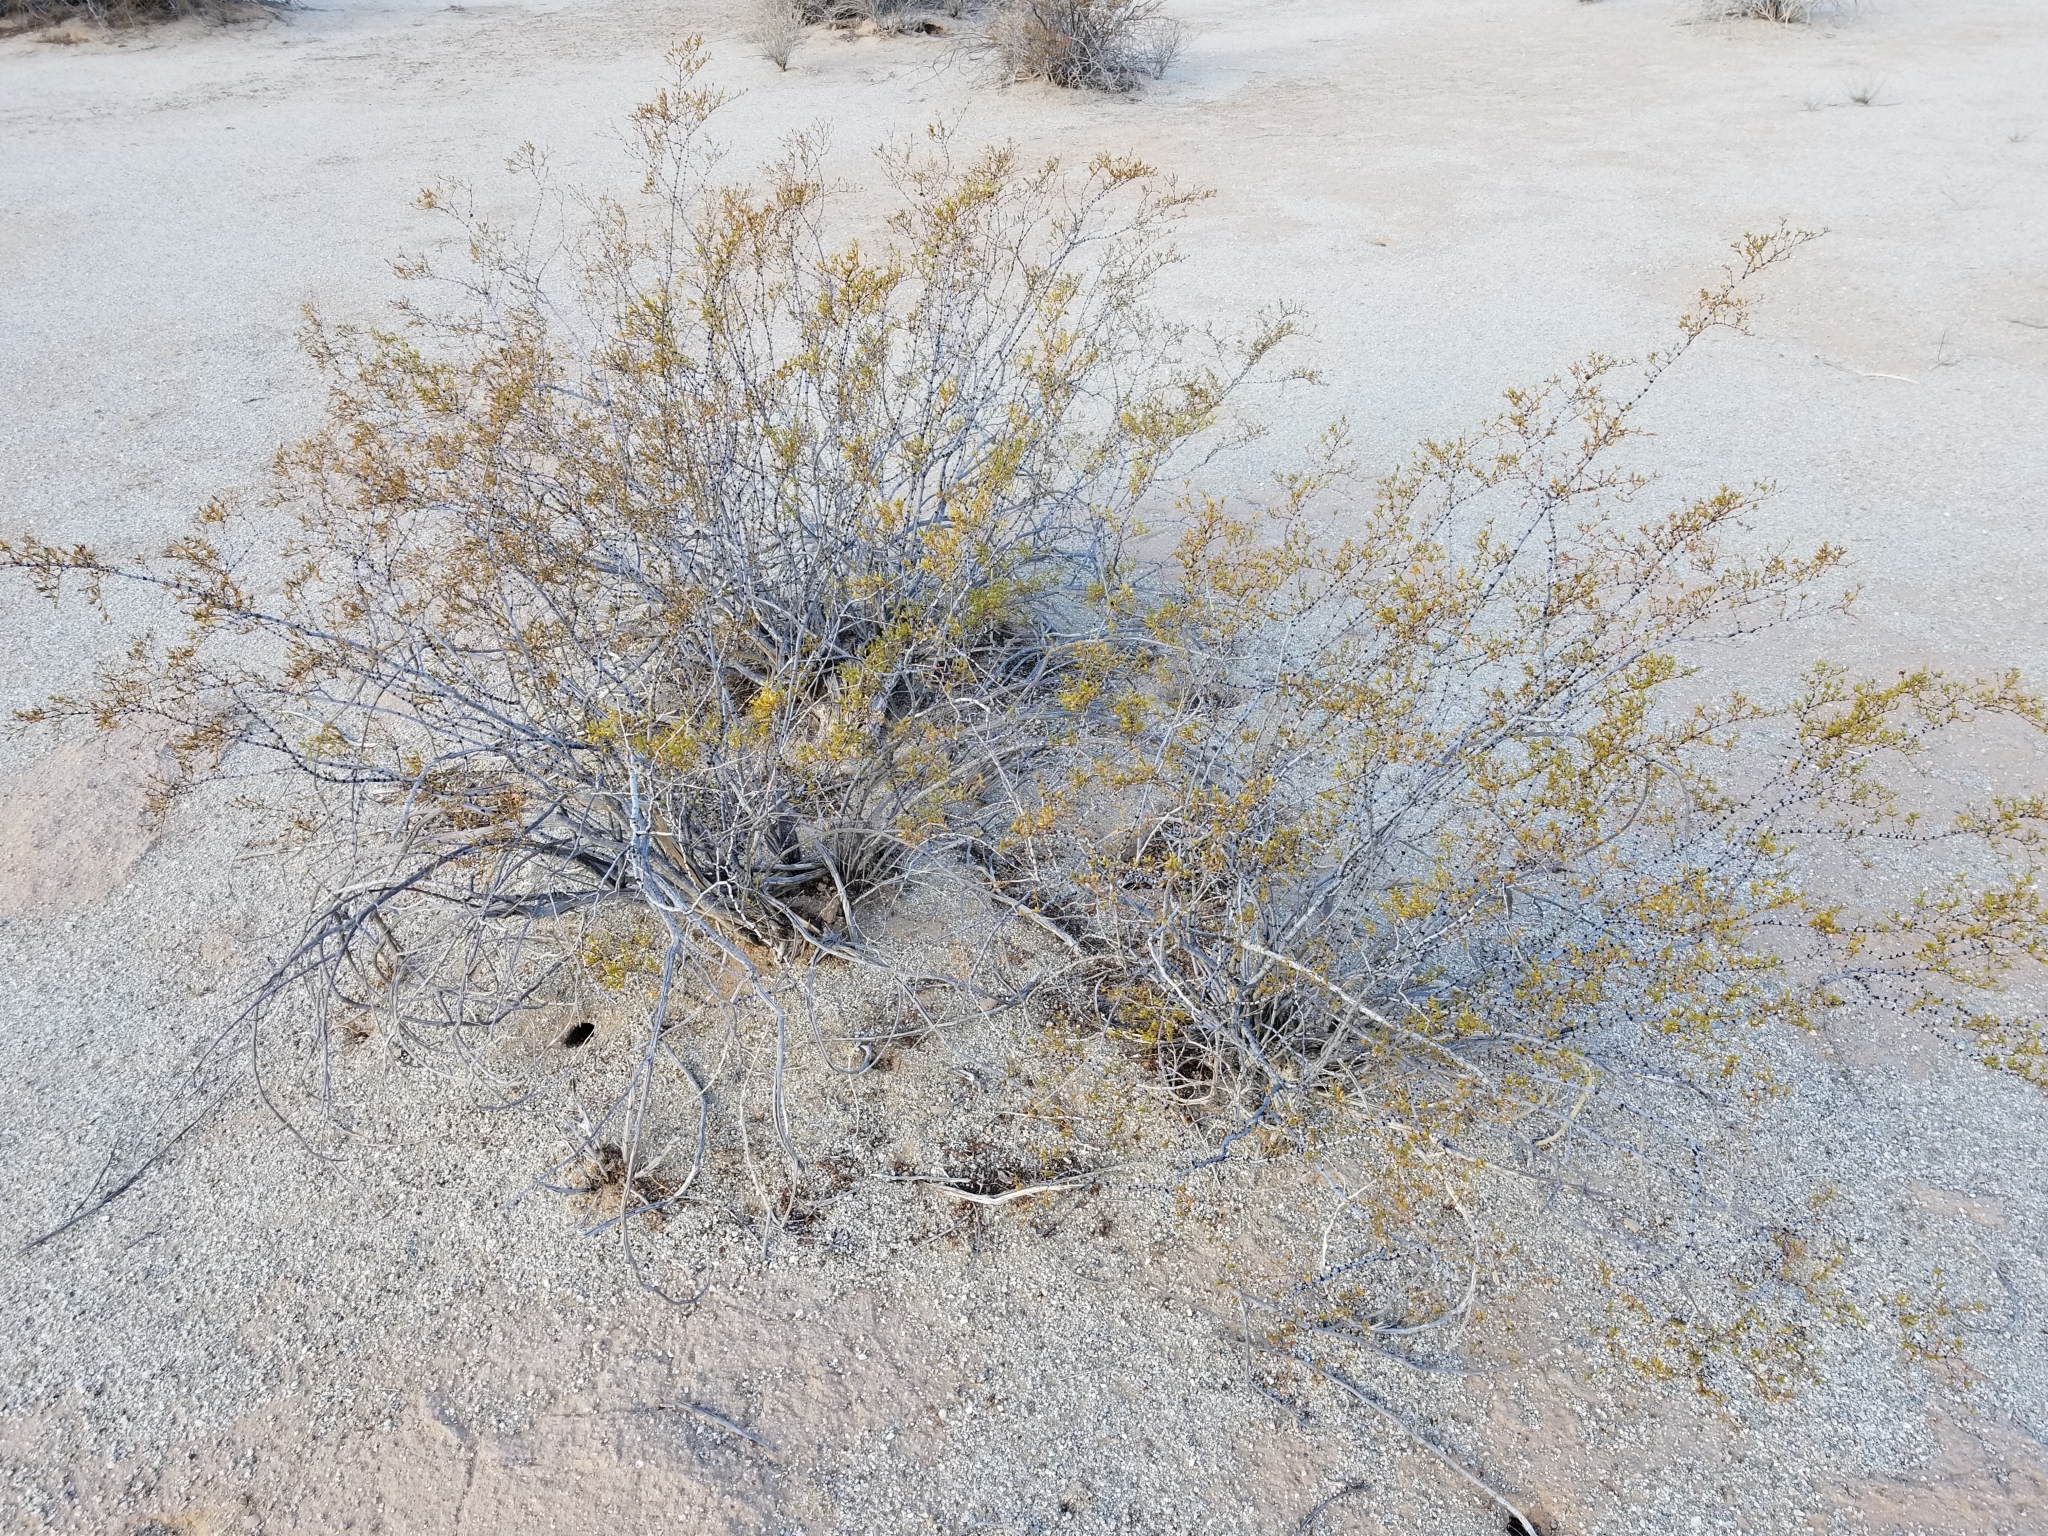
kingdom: Plantae
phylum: Tracheophyta
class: Magnoliopsida
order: Zygophyllales
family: Zygophyllaceae
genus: Larrea
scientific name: Larrea tridentata
